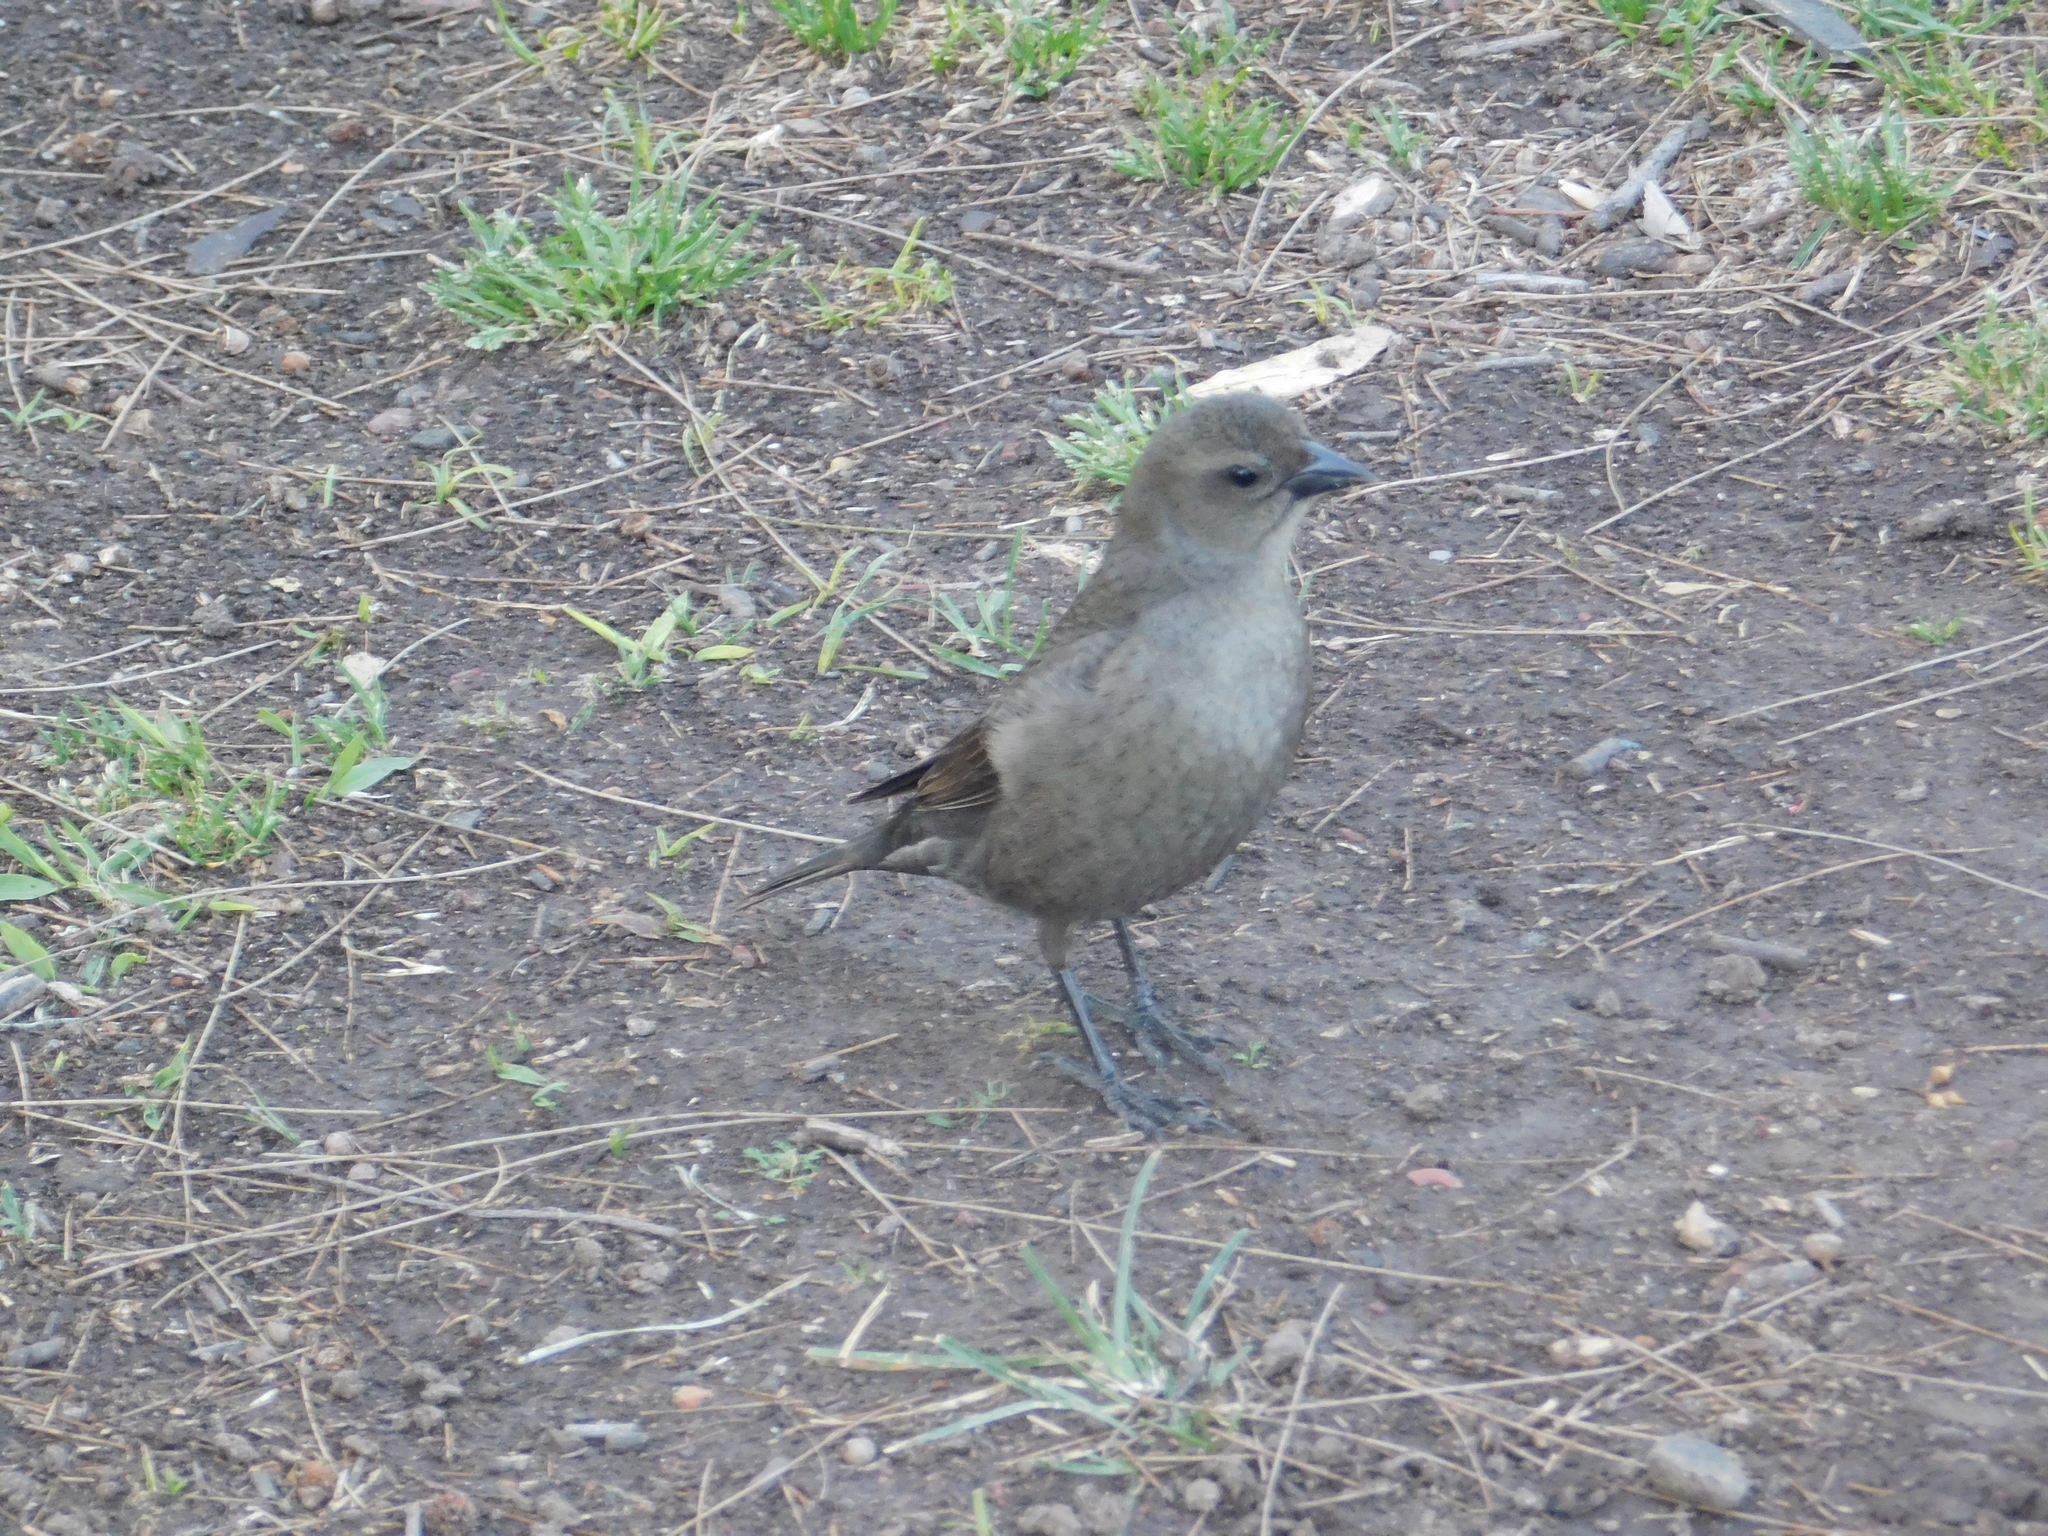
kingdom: Animalia
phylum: Chordata
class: Aves
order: Passeriformes
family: Icteridae
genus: Molothrus
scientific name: Molothrus bonariensis
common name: Shiny cowbird
